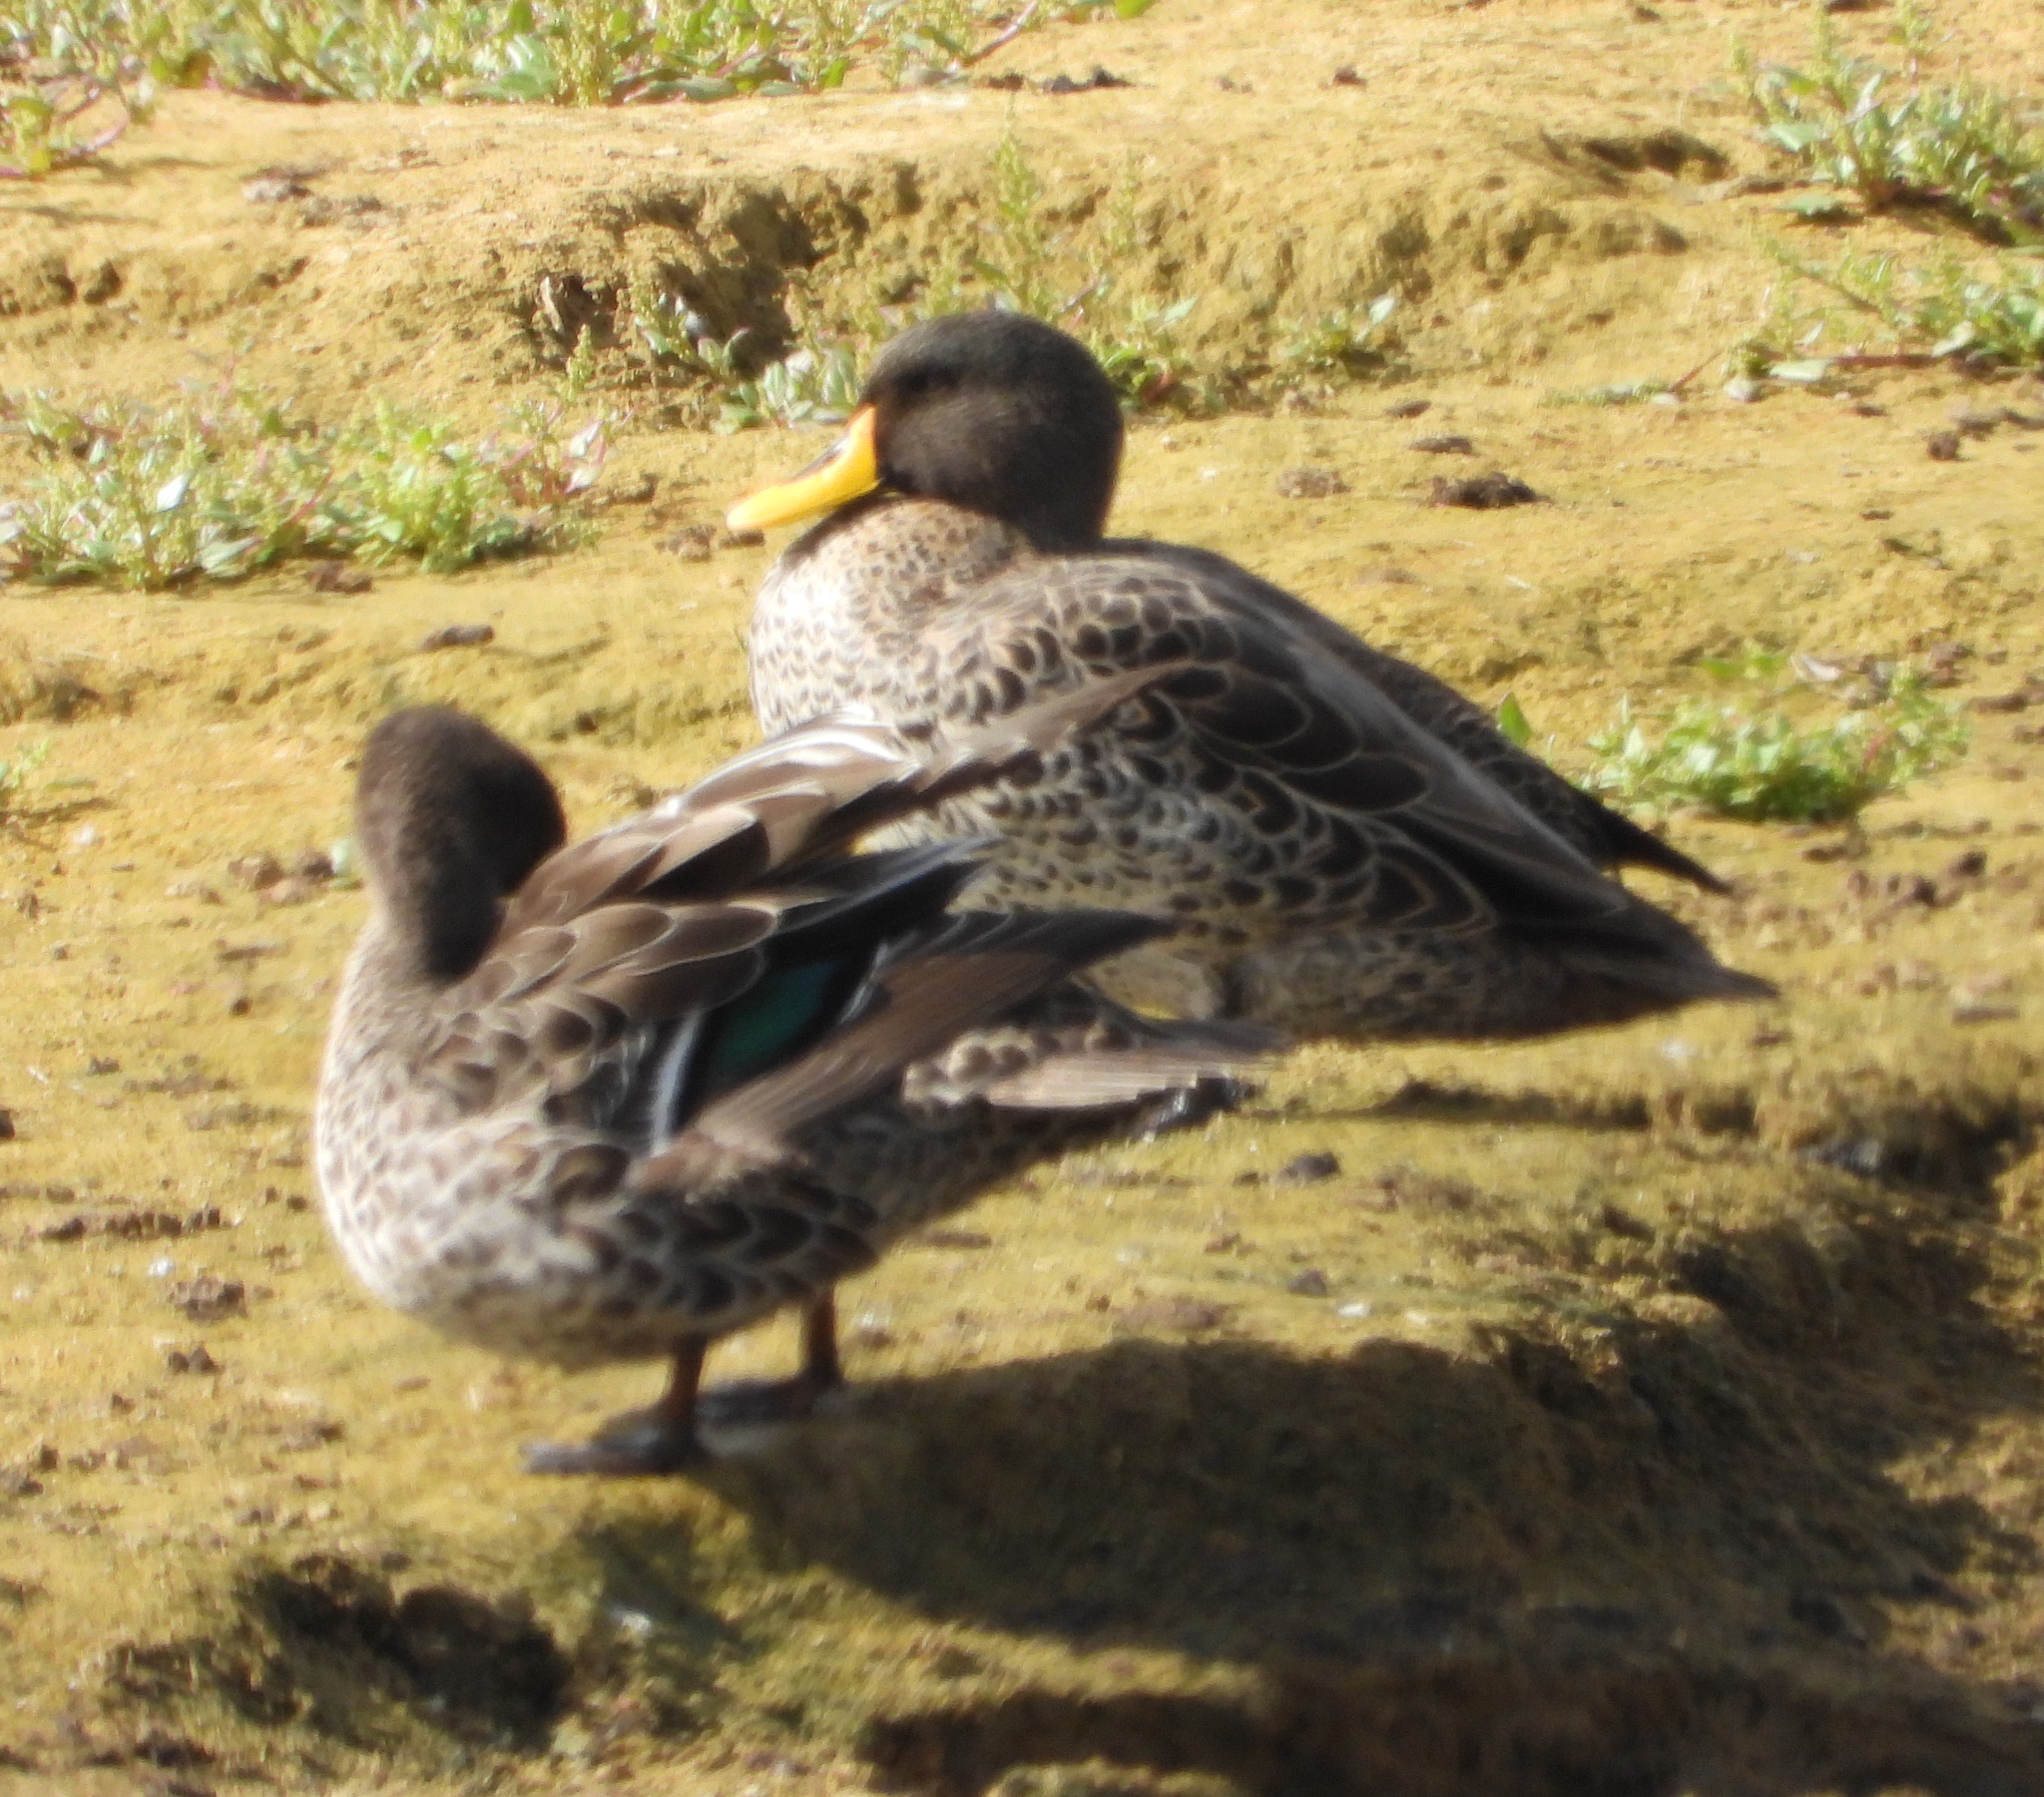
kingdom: Animalia
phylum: Chordata
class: Aves
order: Anseriformes
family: Anatidae
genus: Anas
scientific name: Anas undulata
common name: Yellow-billed duck
